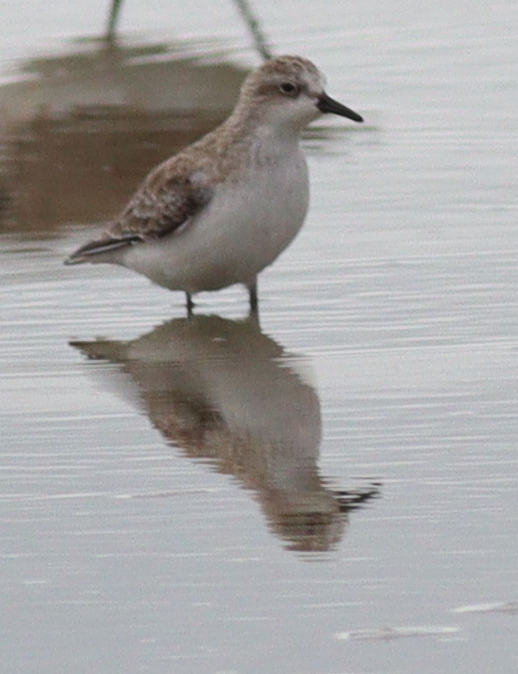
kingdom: Animalia
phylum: Chordata
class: Aves
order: Charadriiformes
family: Scolopacidae
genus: Calidris
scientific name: Calidris ruficollis
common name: Red-necked stint
